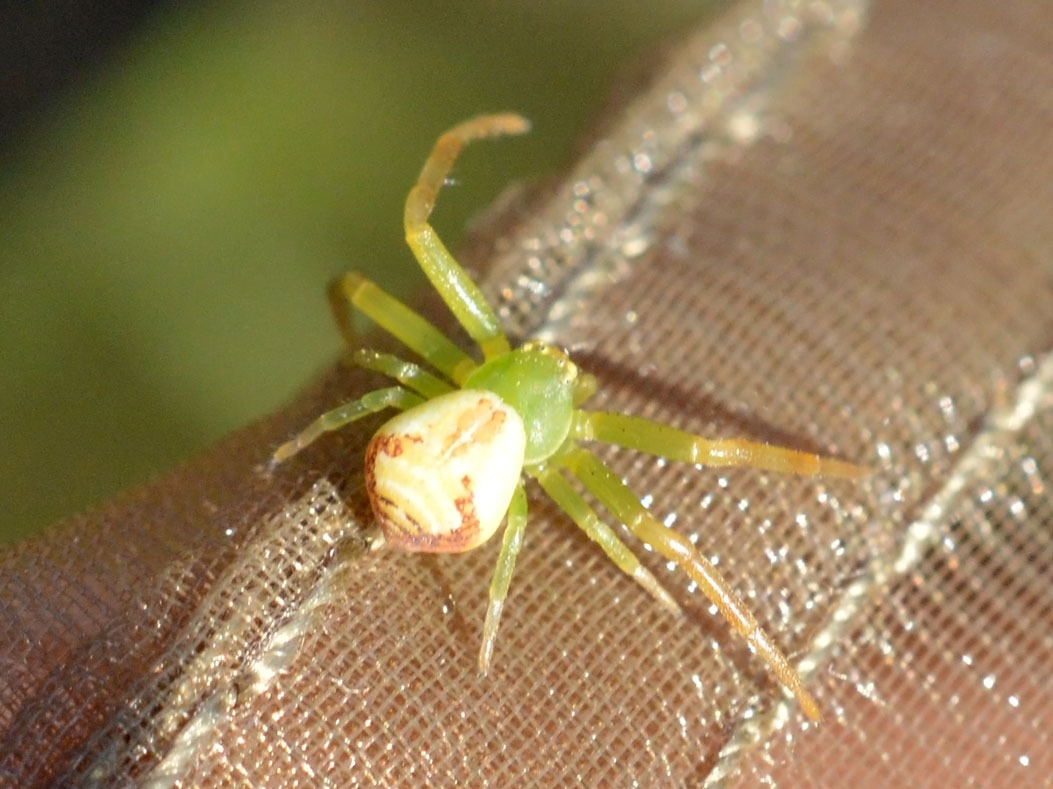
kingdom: Animalia
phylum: Arthropoda
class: Arachnida
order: Araneae
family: Thomisidae
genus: Ebrechtella
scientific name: Ebrechtella tricuspidata
